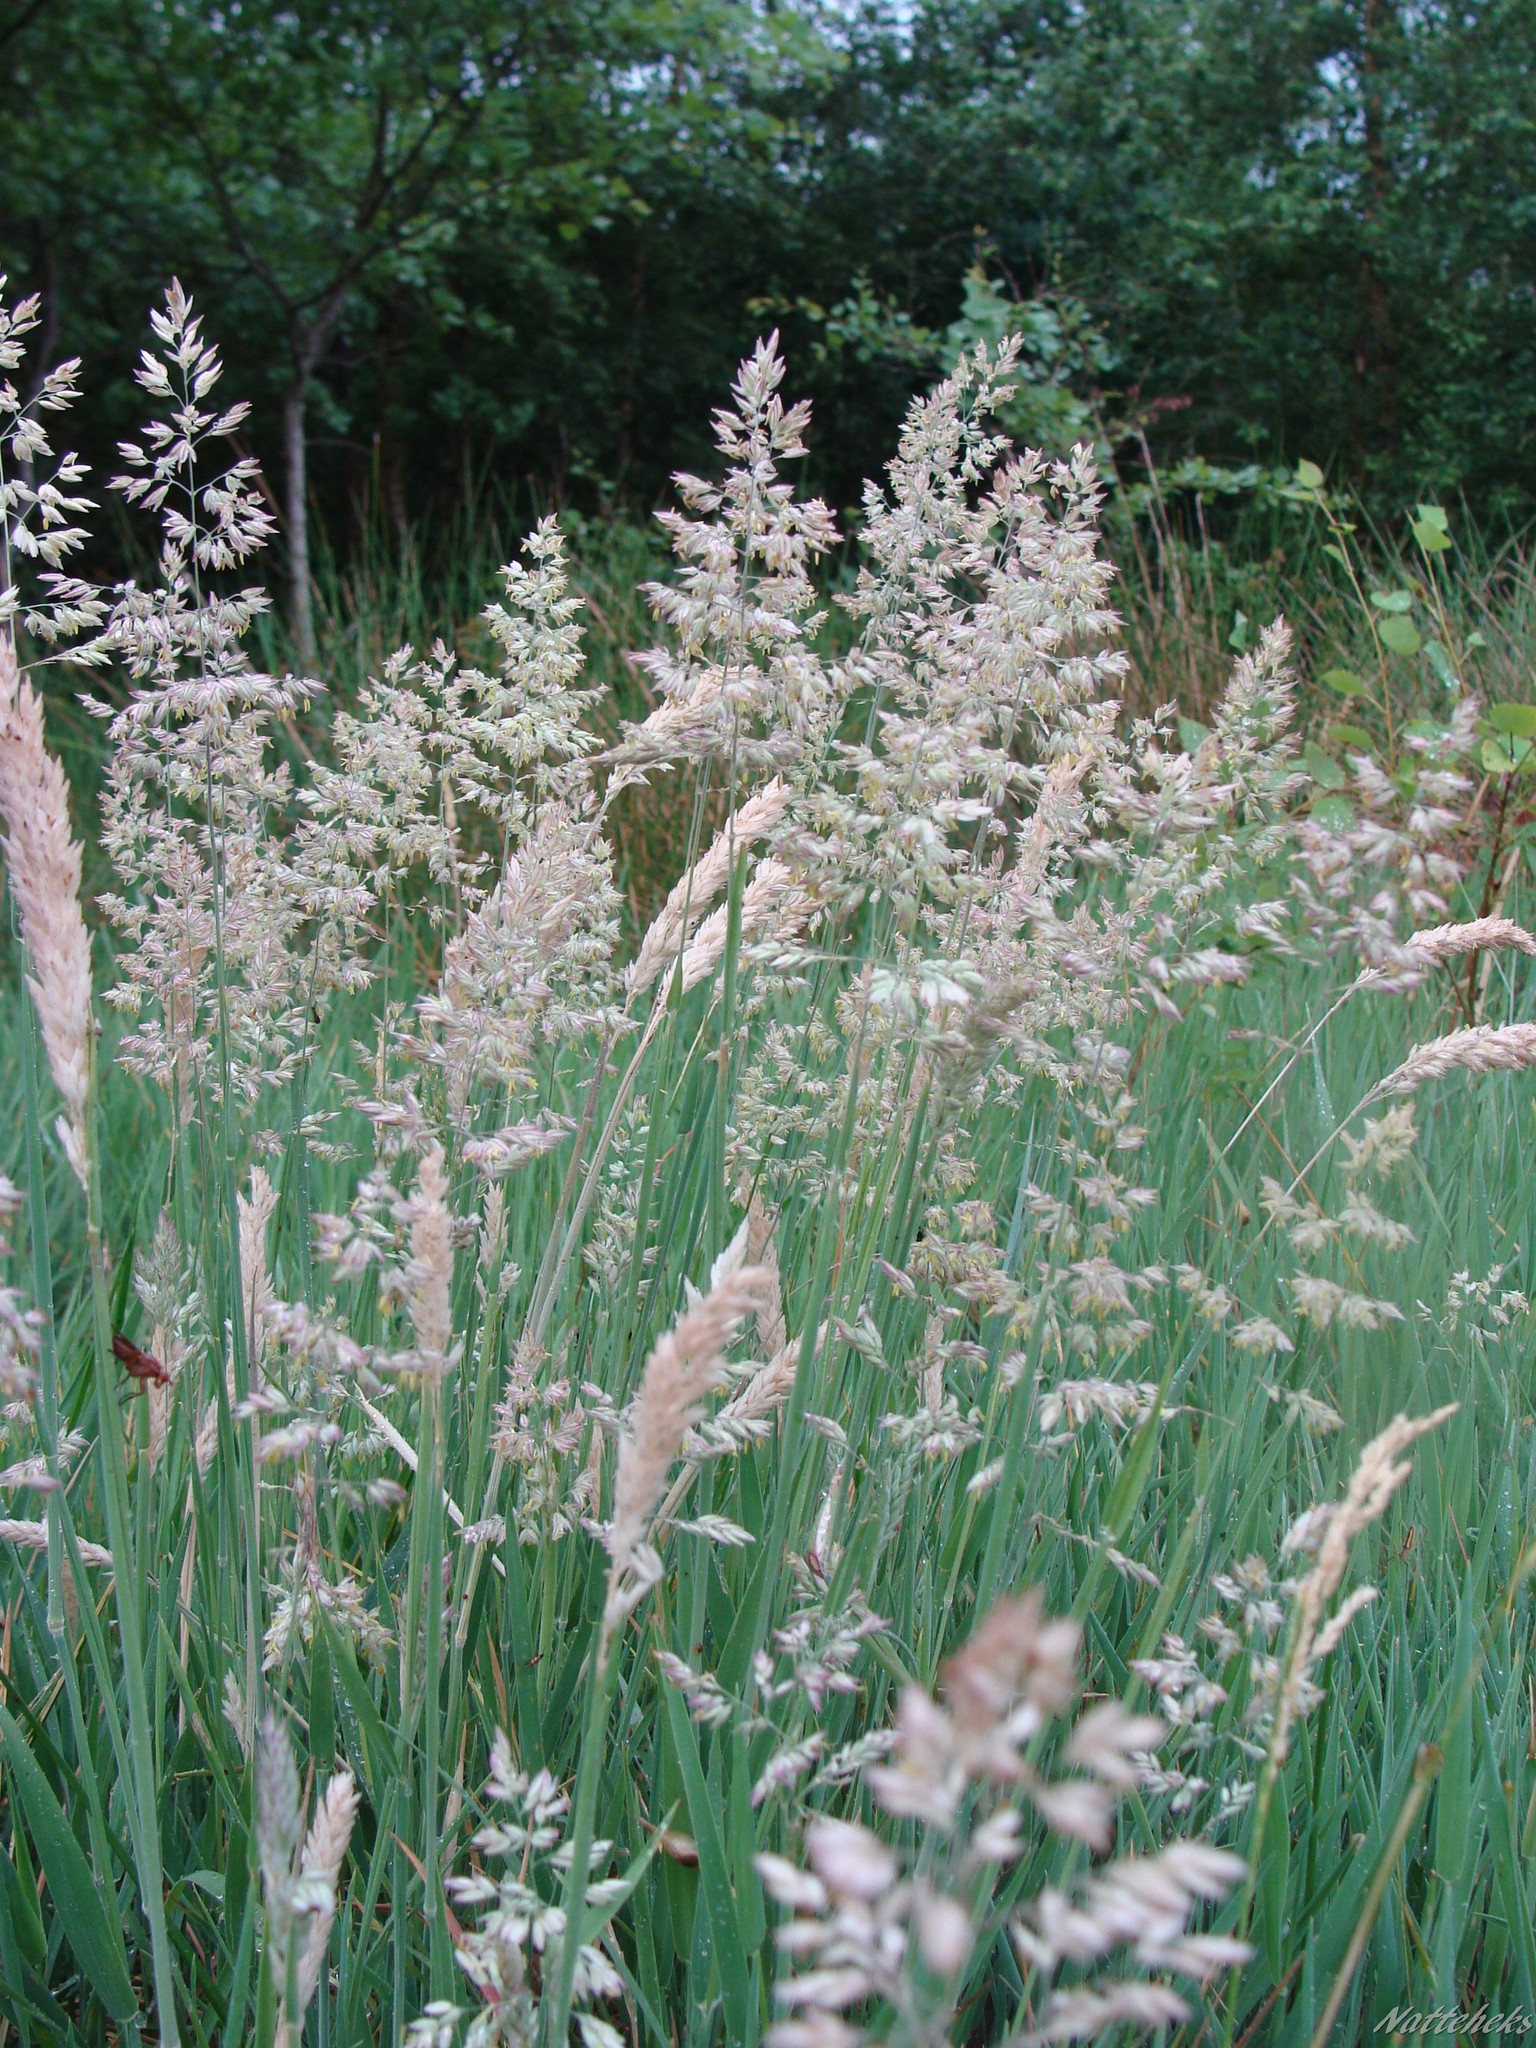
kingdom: Plantae
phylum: Tracheophyta
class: Liliopsida
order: Poales
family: Poaceae
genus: Holcus
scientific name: Holcus lanatus
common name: Yorkshire-fog
